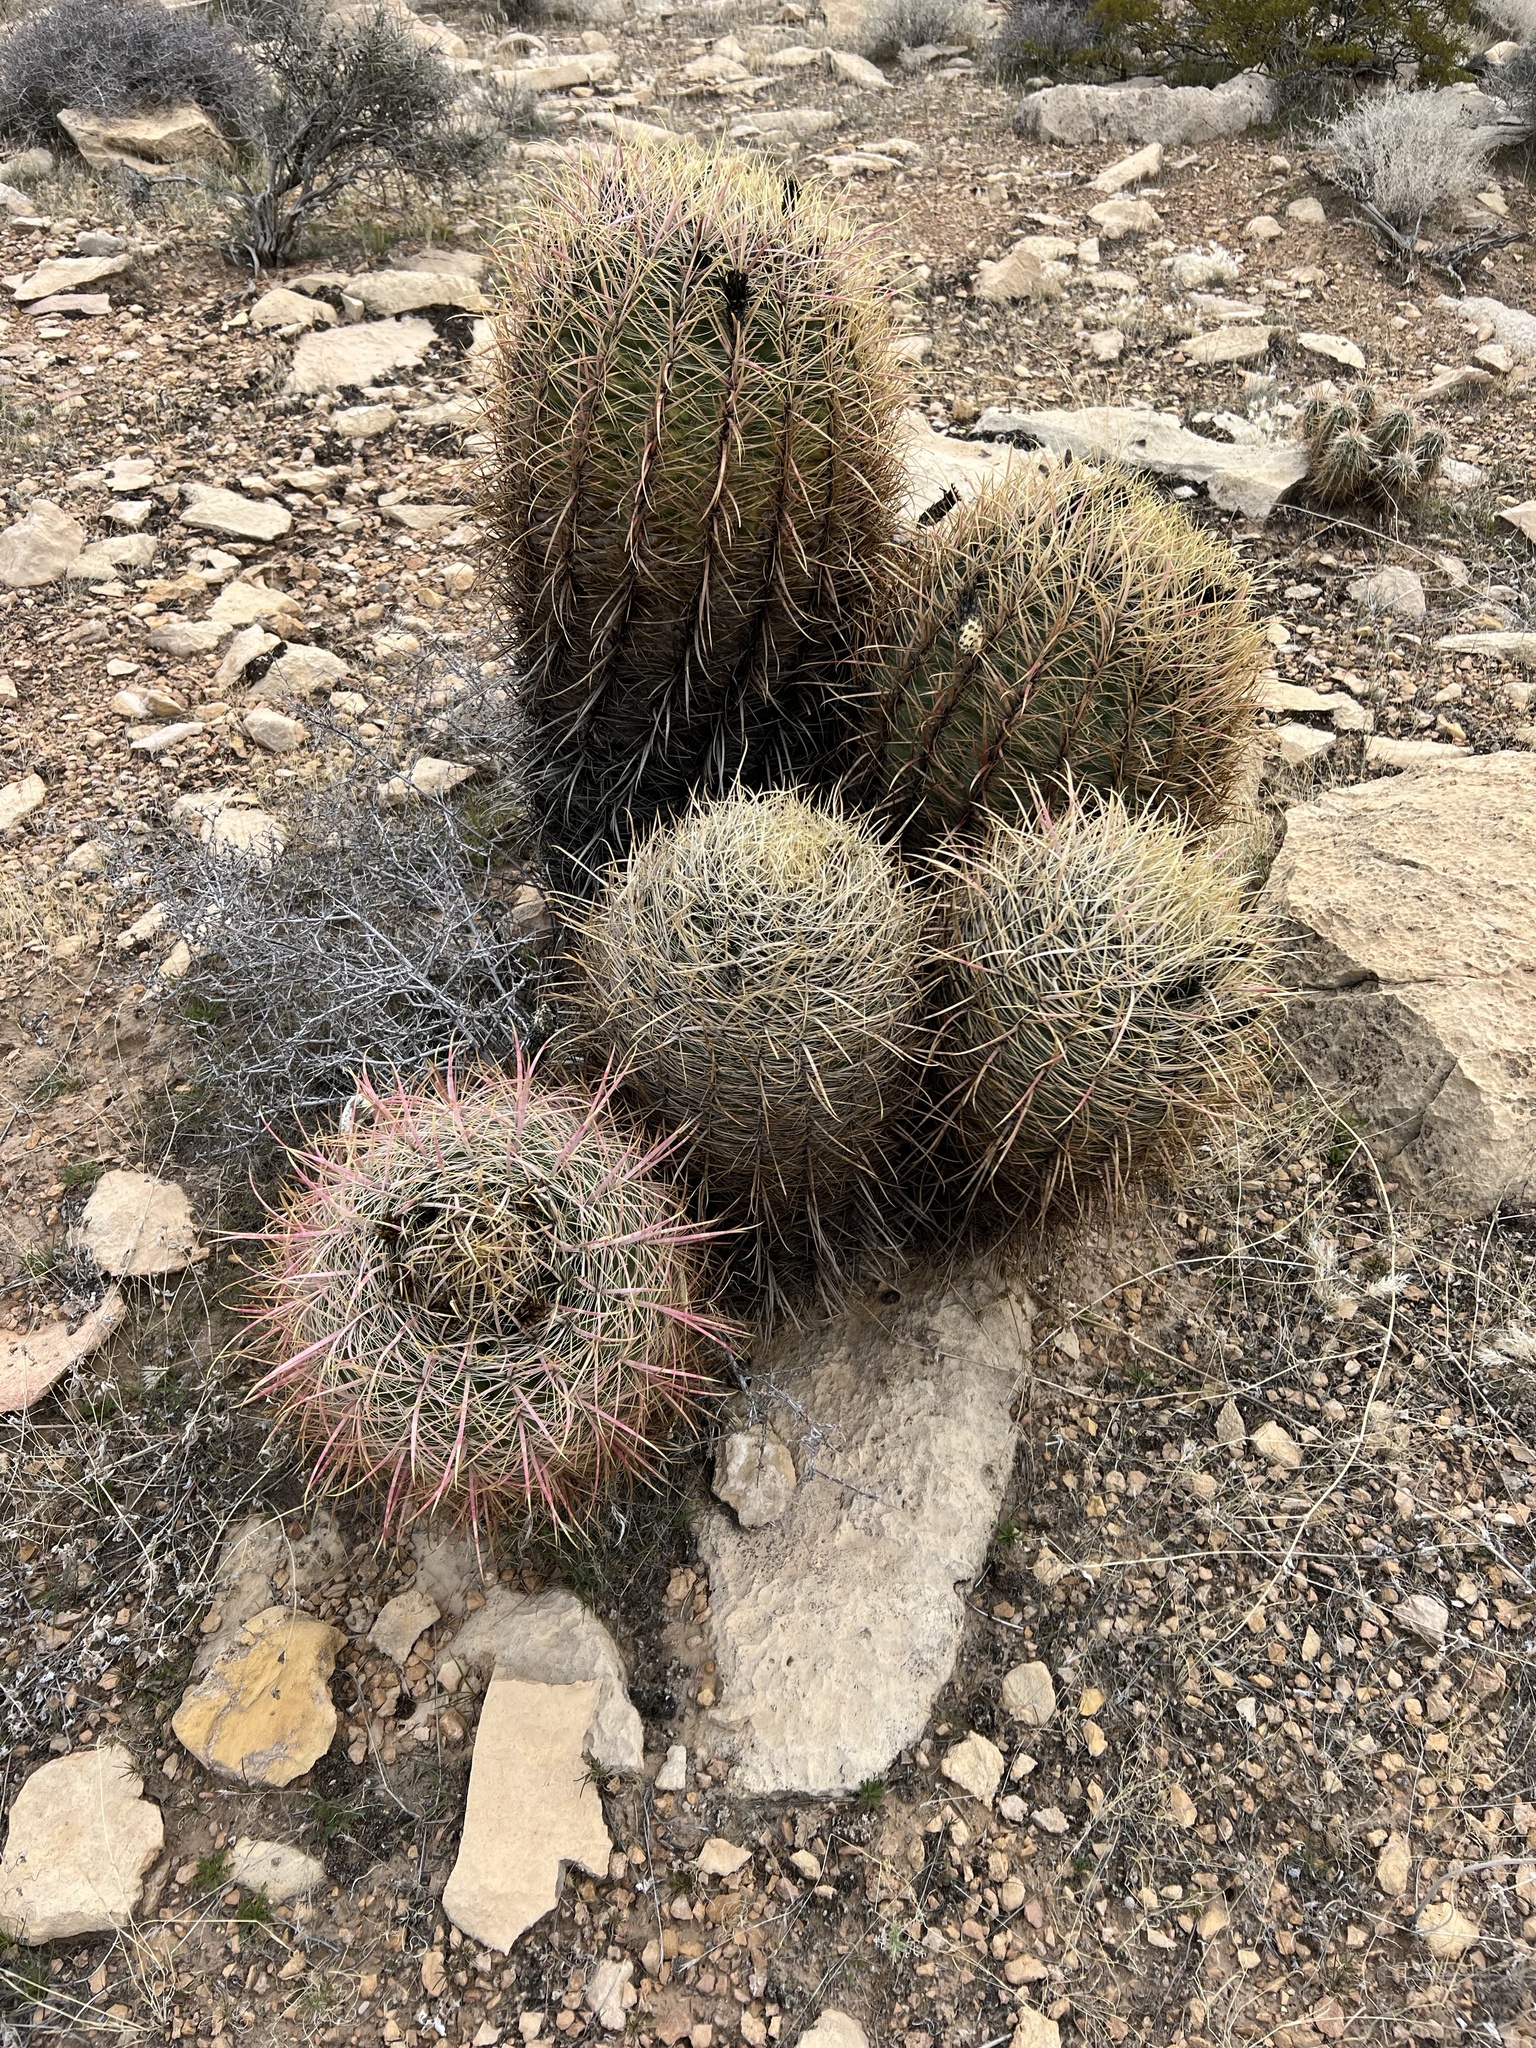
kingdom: Plantae
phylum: Tracheophyta
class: Magnoliopsida
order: Caryophyllales
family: Cactaceae
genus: Ferocactus
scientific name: Ferocactus cylindraceus
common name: California barrel cactus
